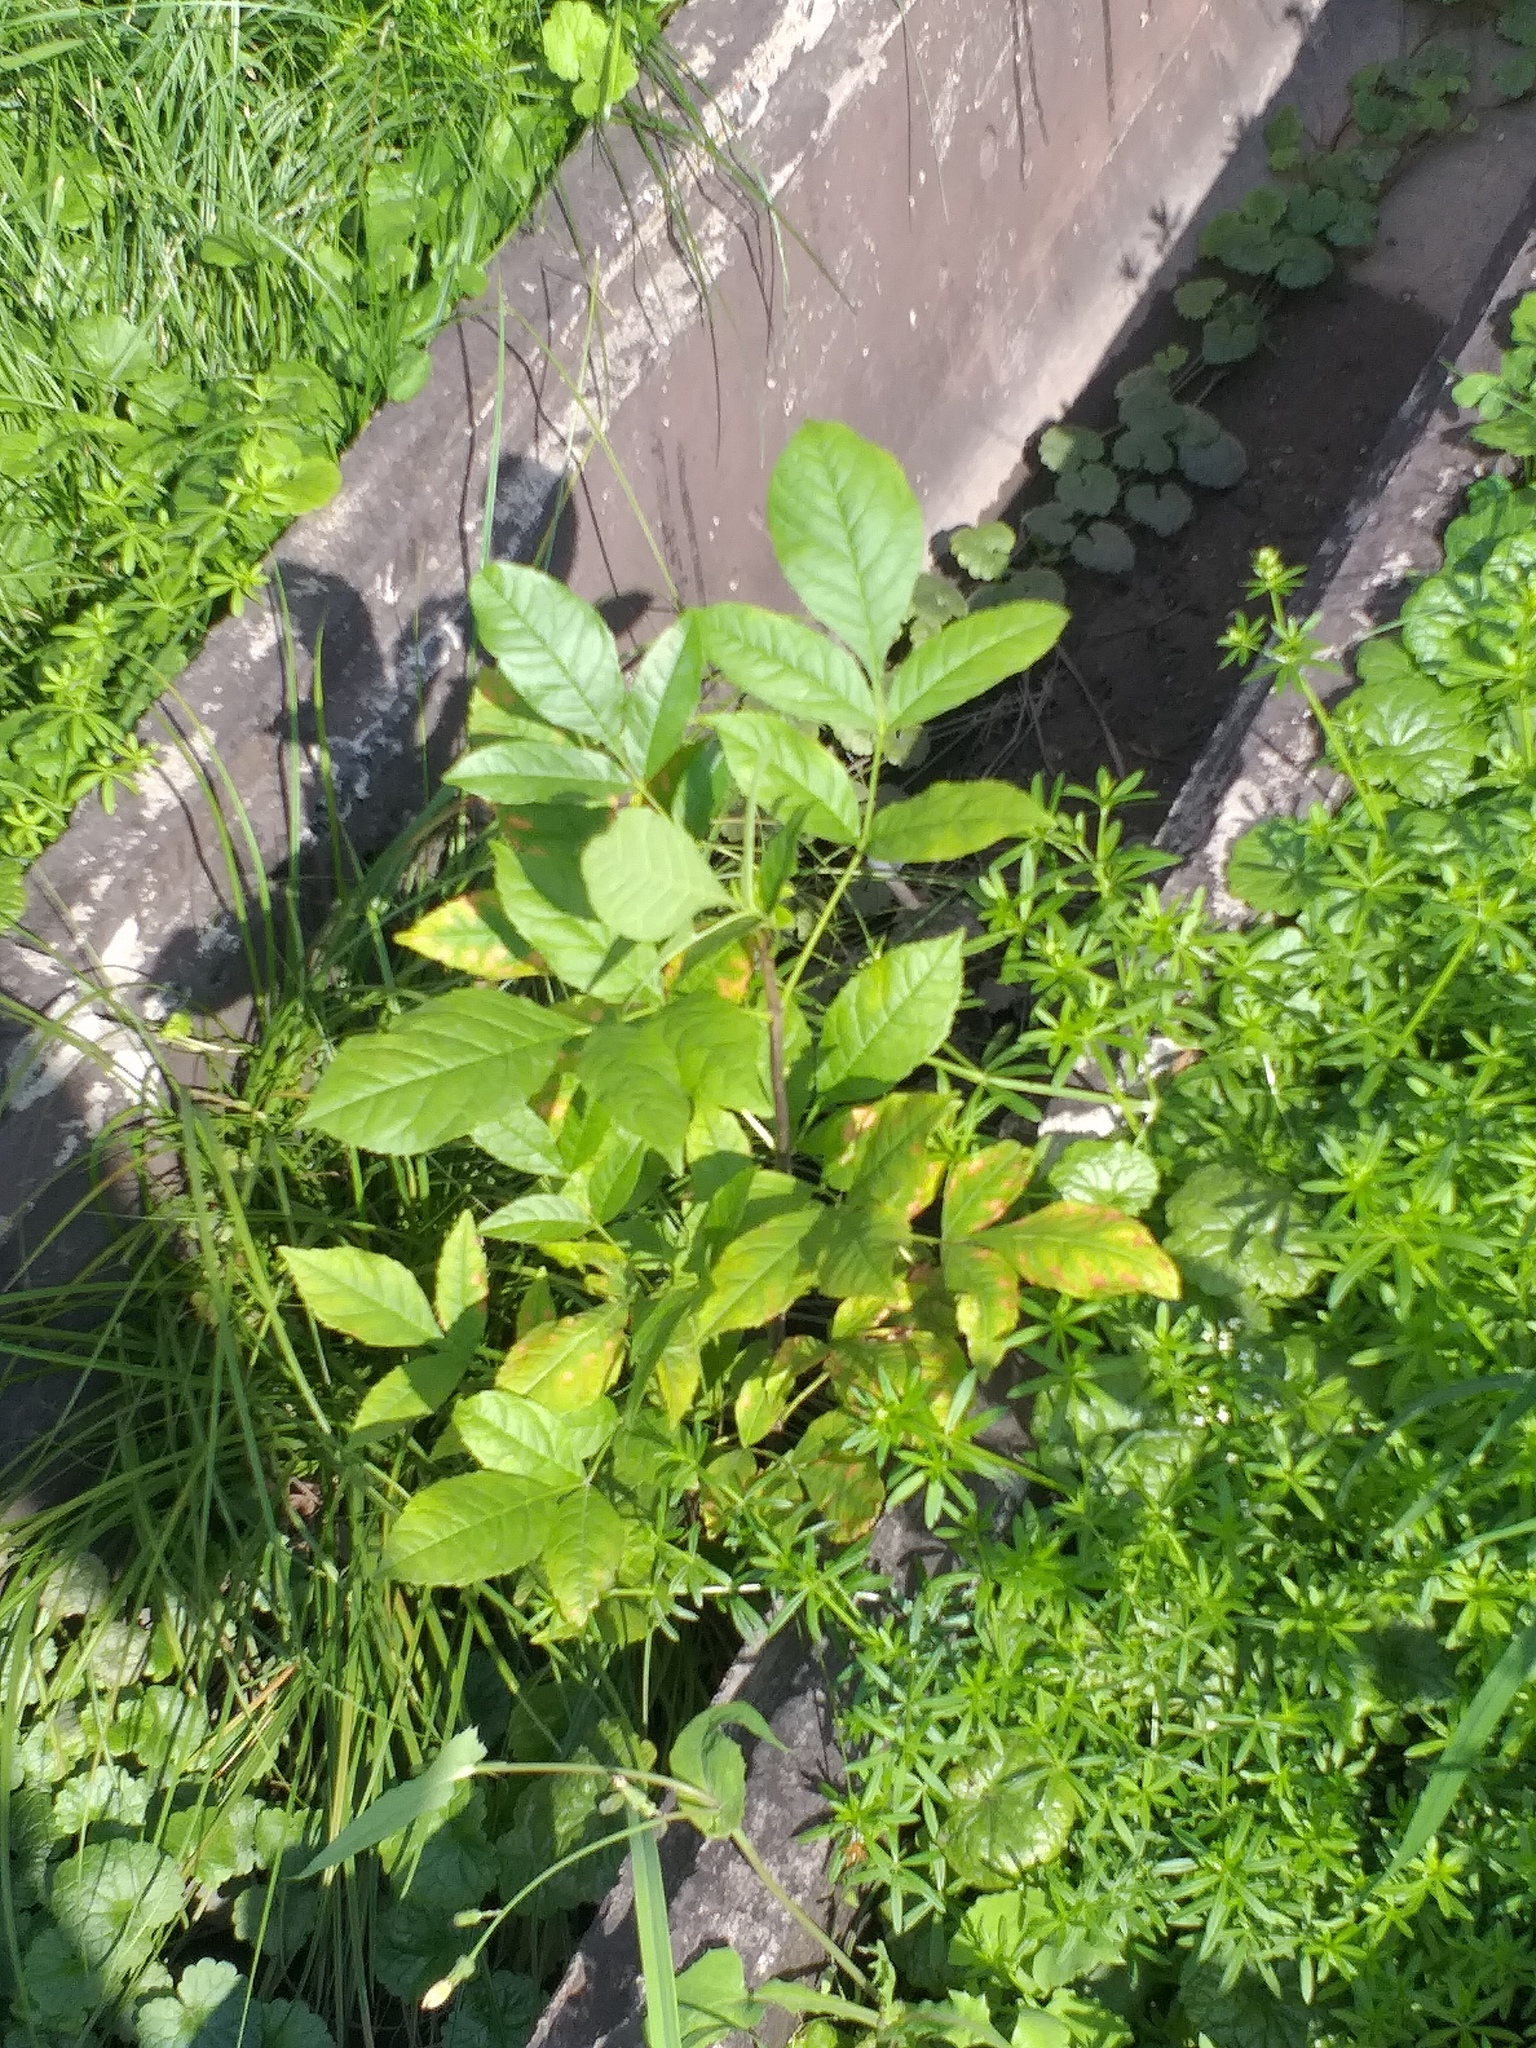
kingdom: Plantae
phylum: Tracheophyta
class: Magnoliopsida
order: Lamiales
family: Oleaceae
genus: Fraxinus
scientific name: Fraxinus pennsylvanica
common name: Green ash
